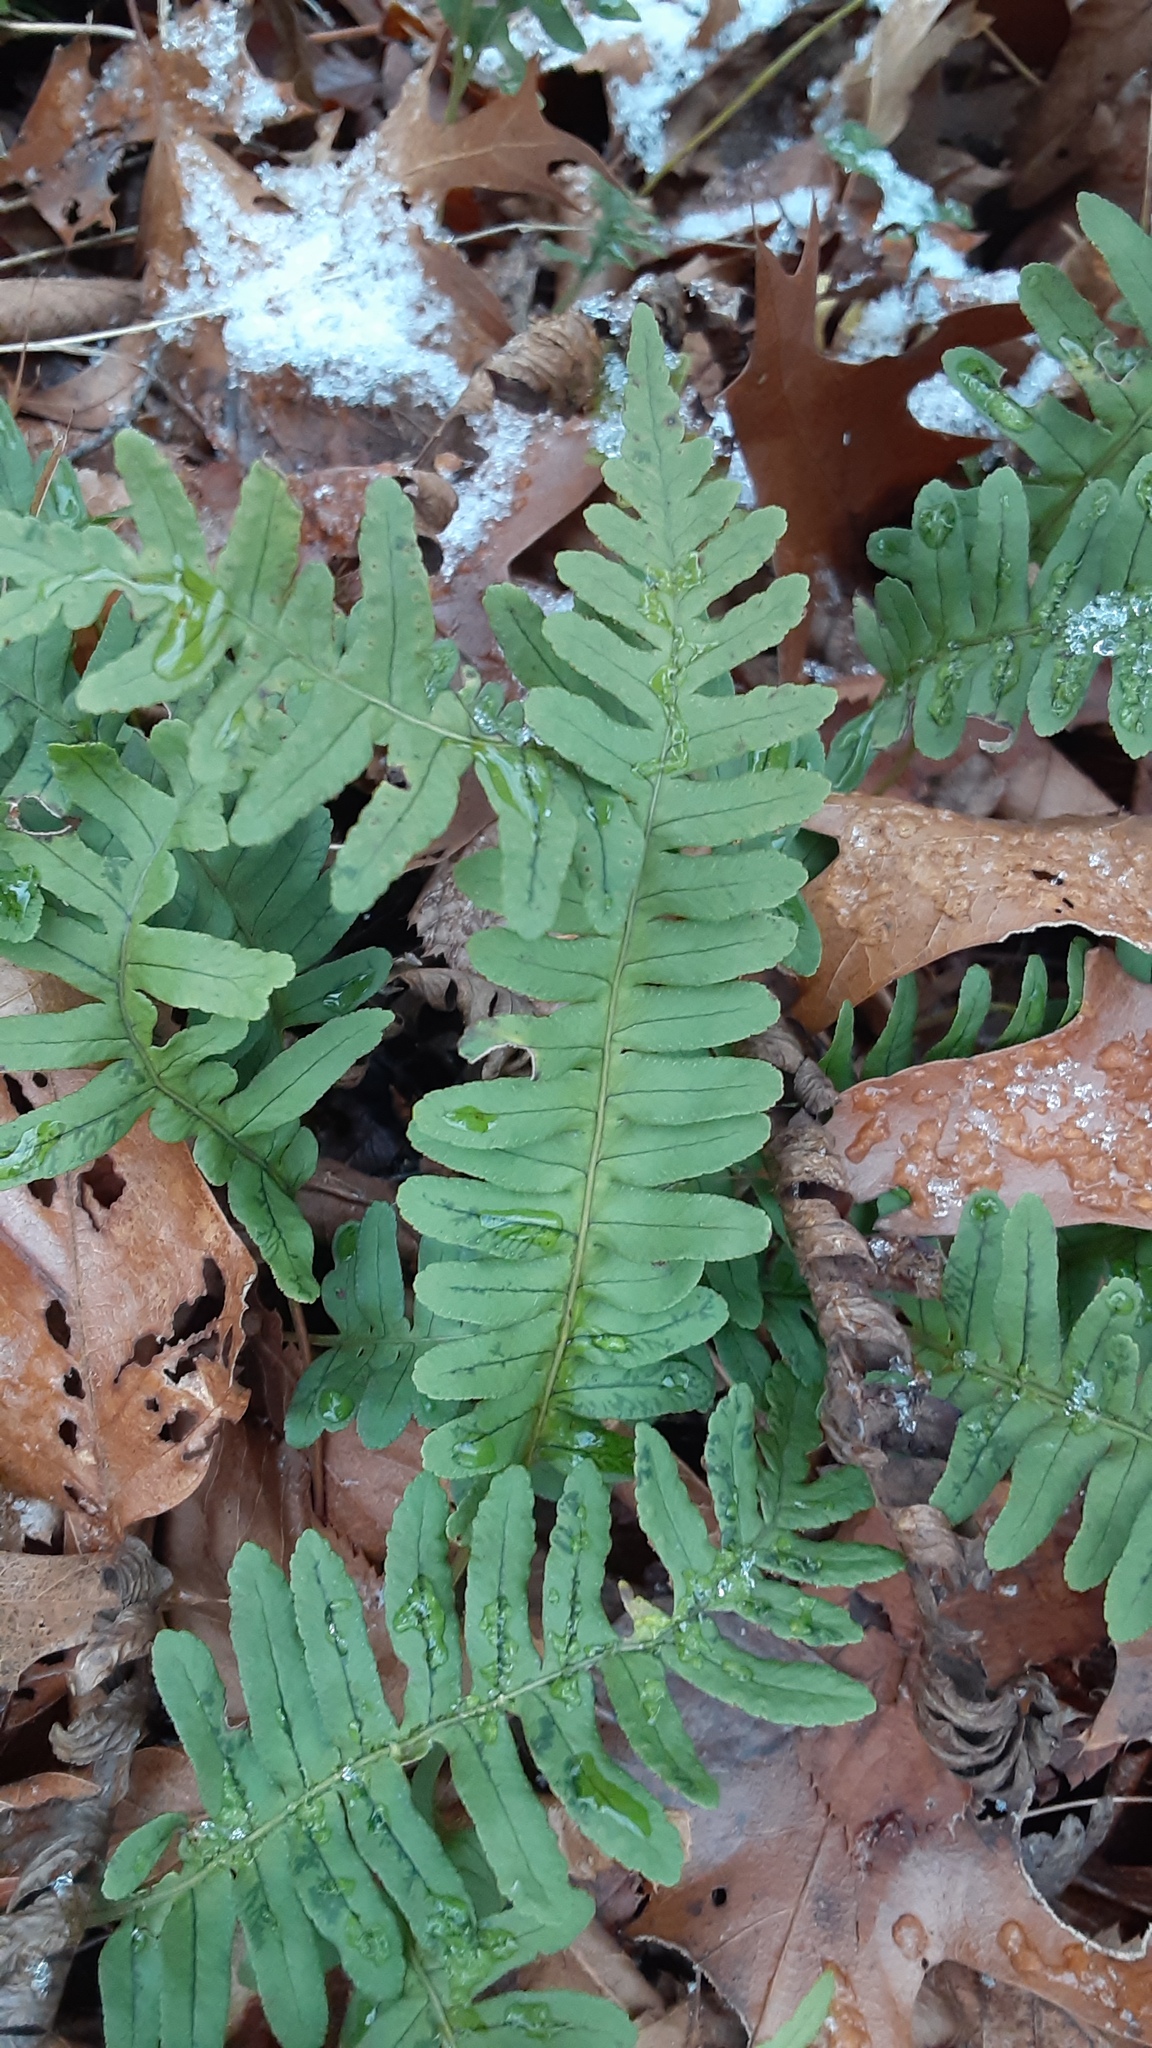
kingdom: Plantae
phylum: Tracheophyta
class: Polypodiopsida
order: Polypodiales
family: Polypodiaceae
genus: Polypodium
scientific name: Polypodium virginianum
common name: American wall fern
